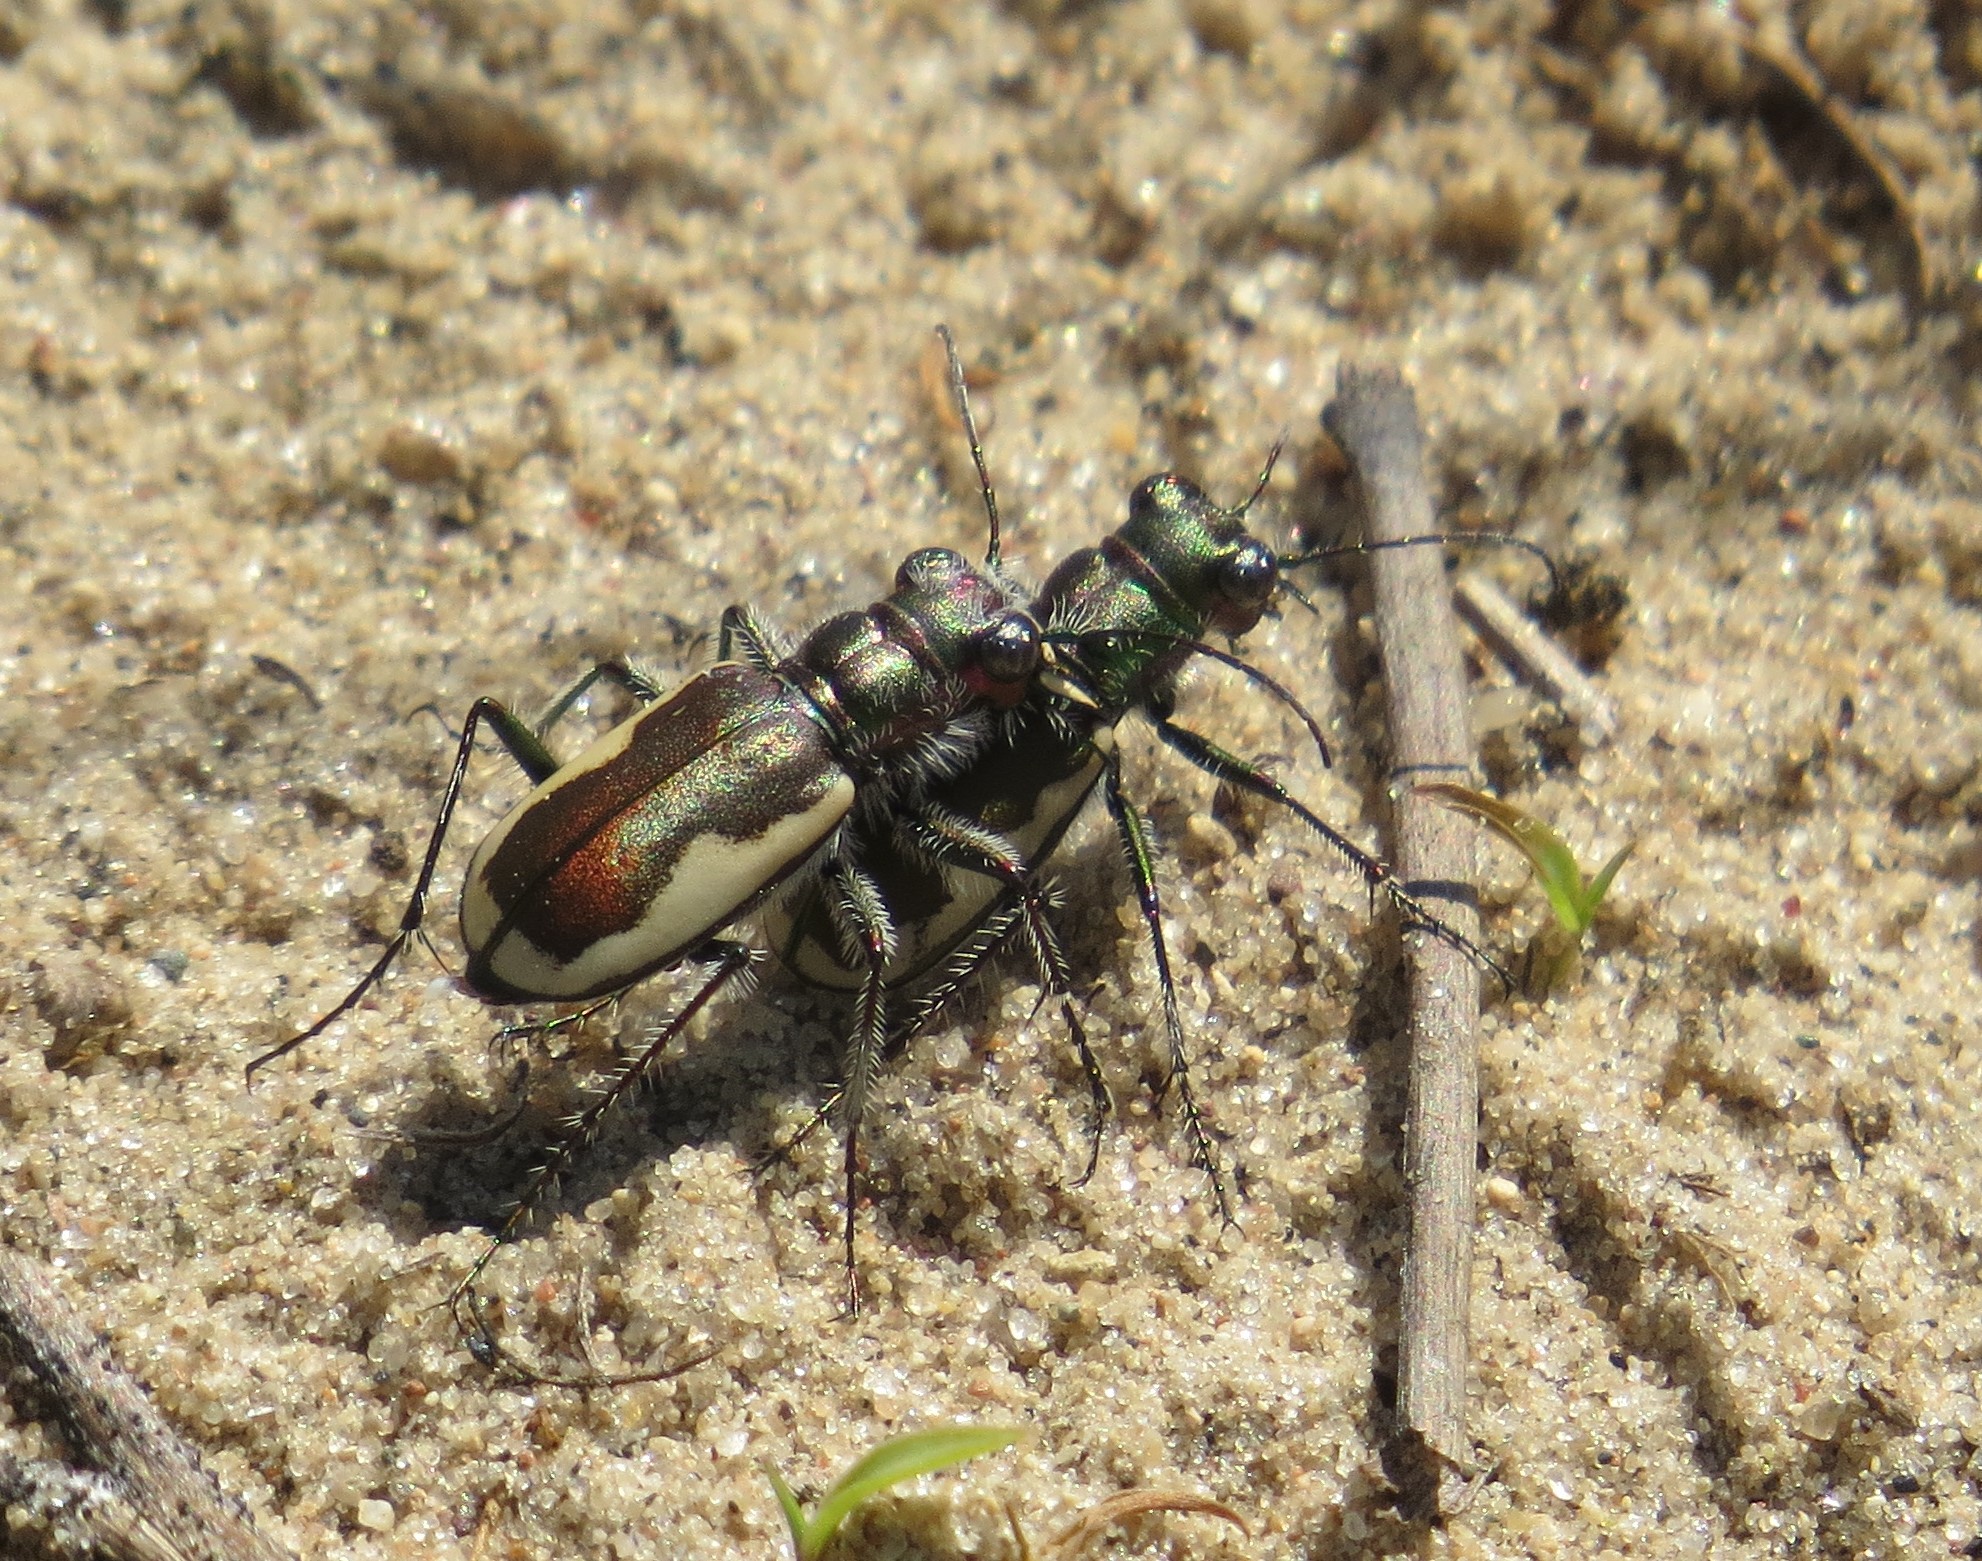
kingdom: Animalia
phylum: Arthropoda
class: Insecta
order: Coleoptera
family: Carabidae
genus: Cicindela
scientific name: Cicindela scutellaris
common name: Festive tiger beetle
